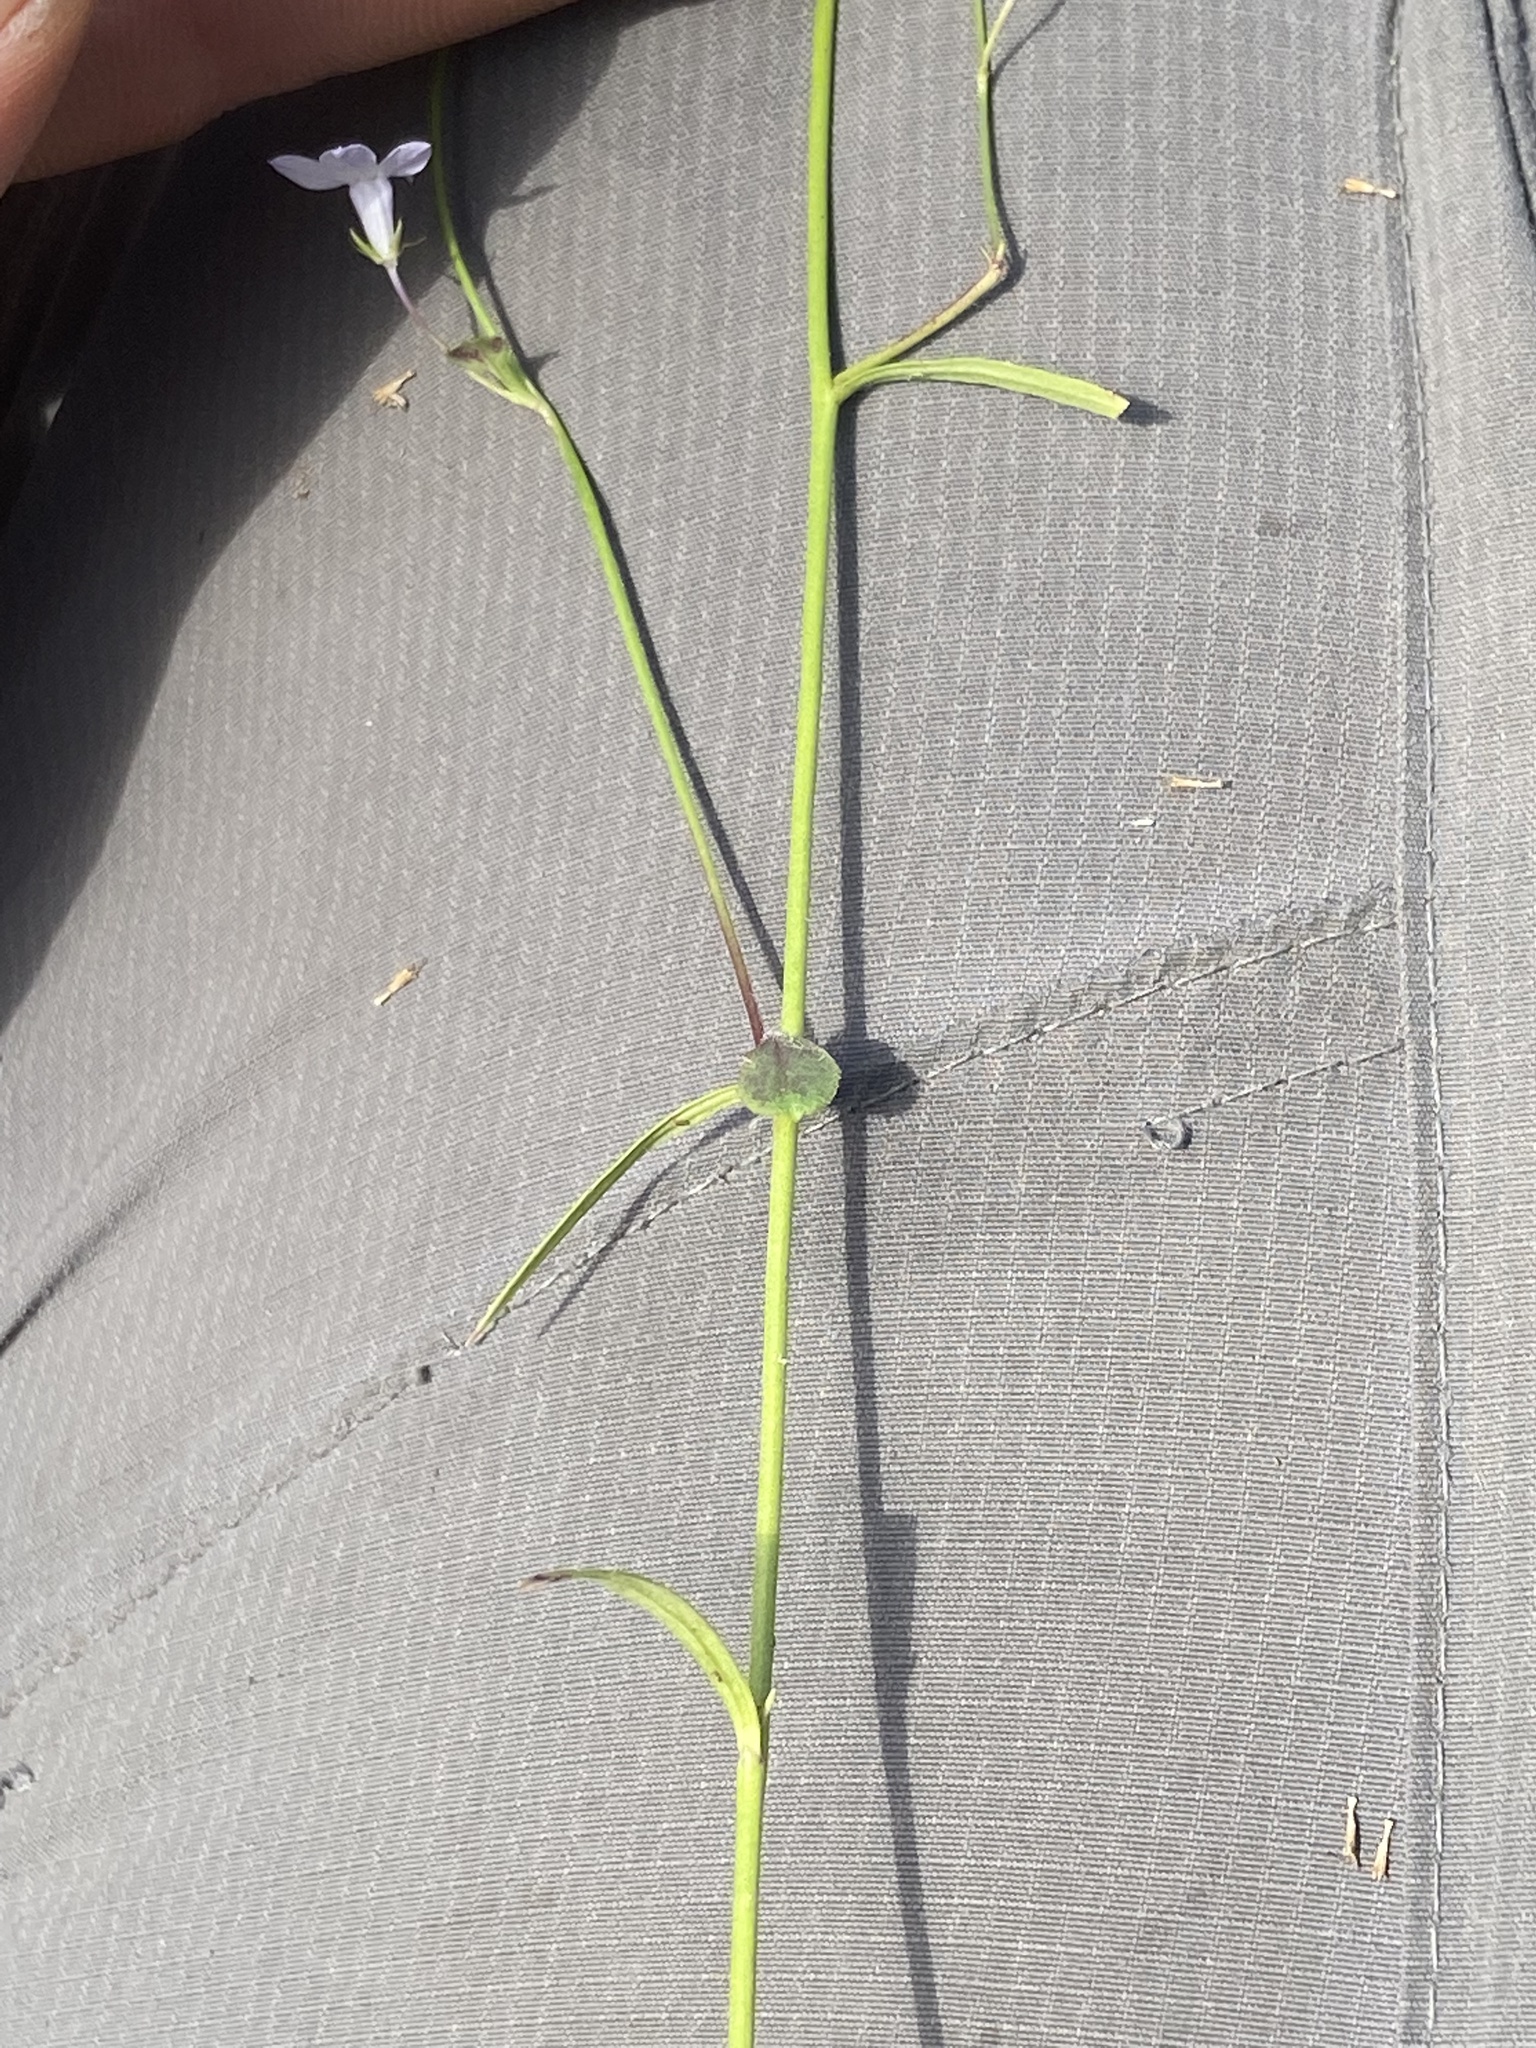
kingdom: Plantae
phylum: Tracheophyta
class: Magnoliopsida
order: Asterales
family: Campanulaceae
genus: Lobelia
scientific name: Lobelia nuttallii
